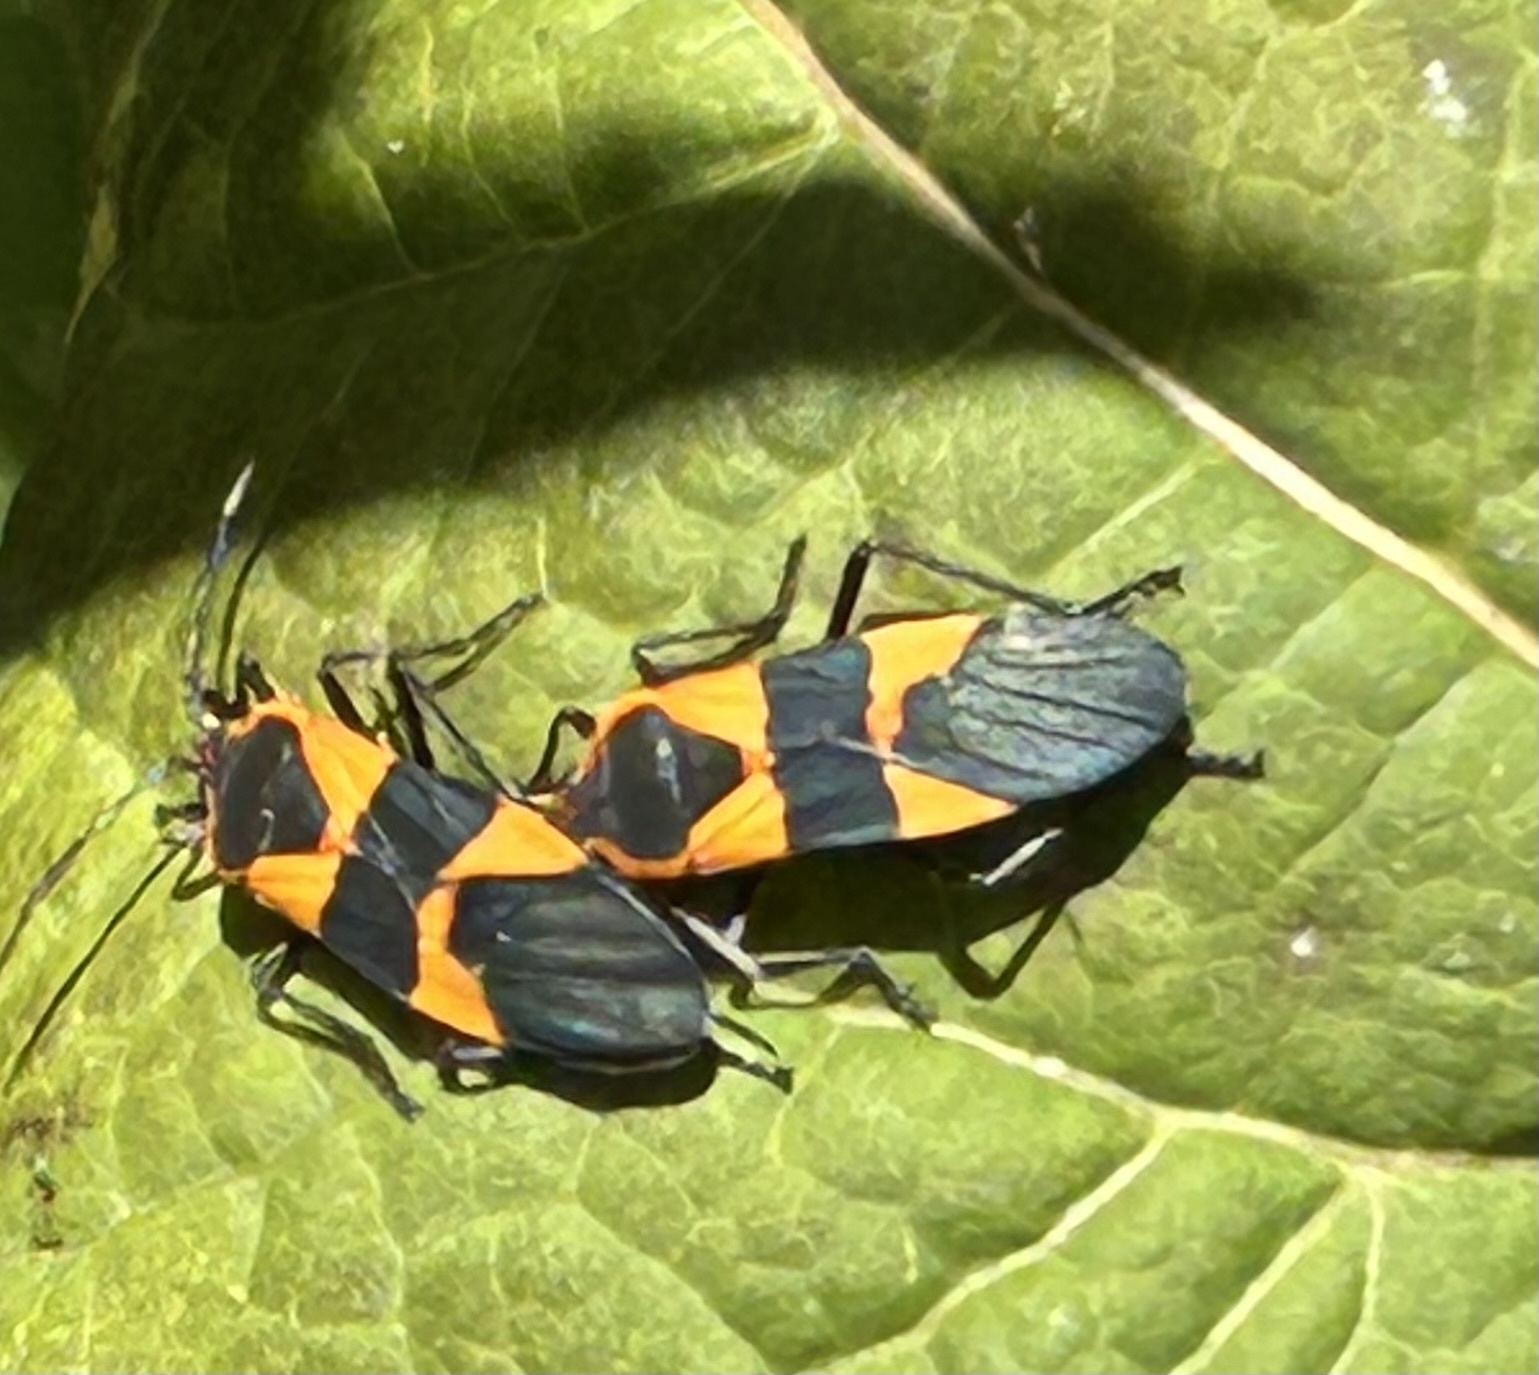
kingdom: Animalia
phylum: Arthropoda
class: Insecta
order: Hemiptera
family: Lygaeidae
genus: Oncopeltus
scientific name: Oncopeltus fasciatus
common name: Large milkweed bug
